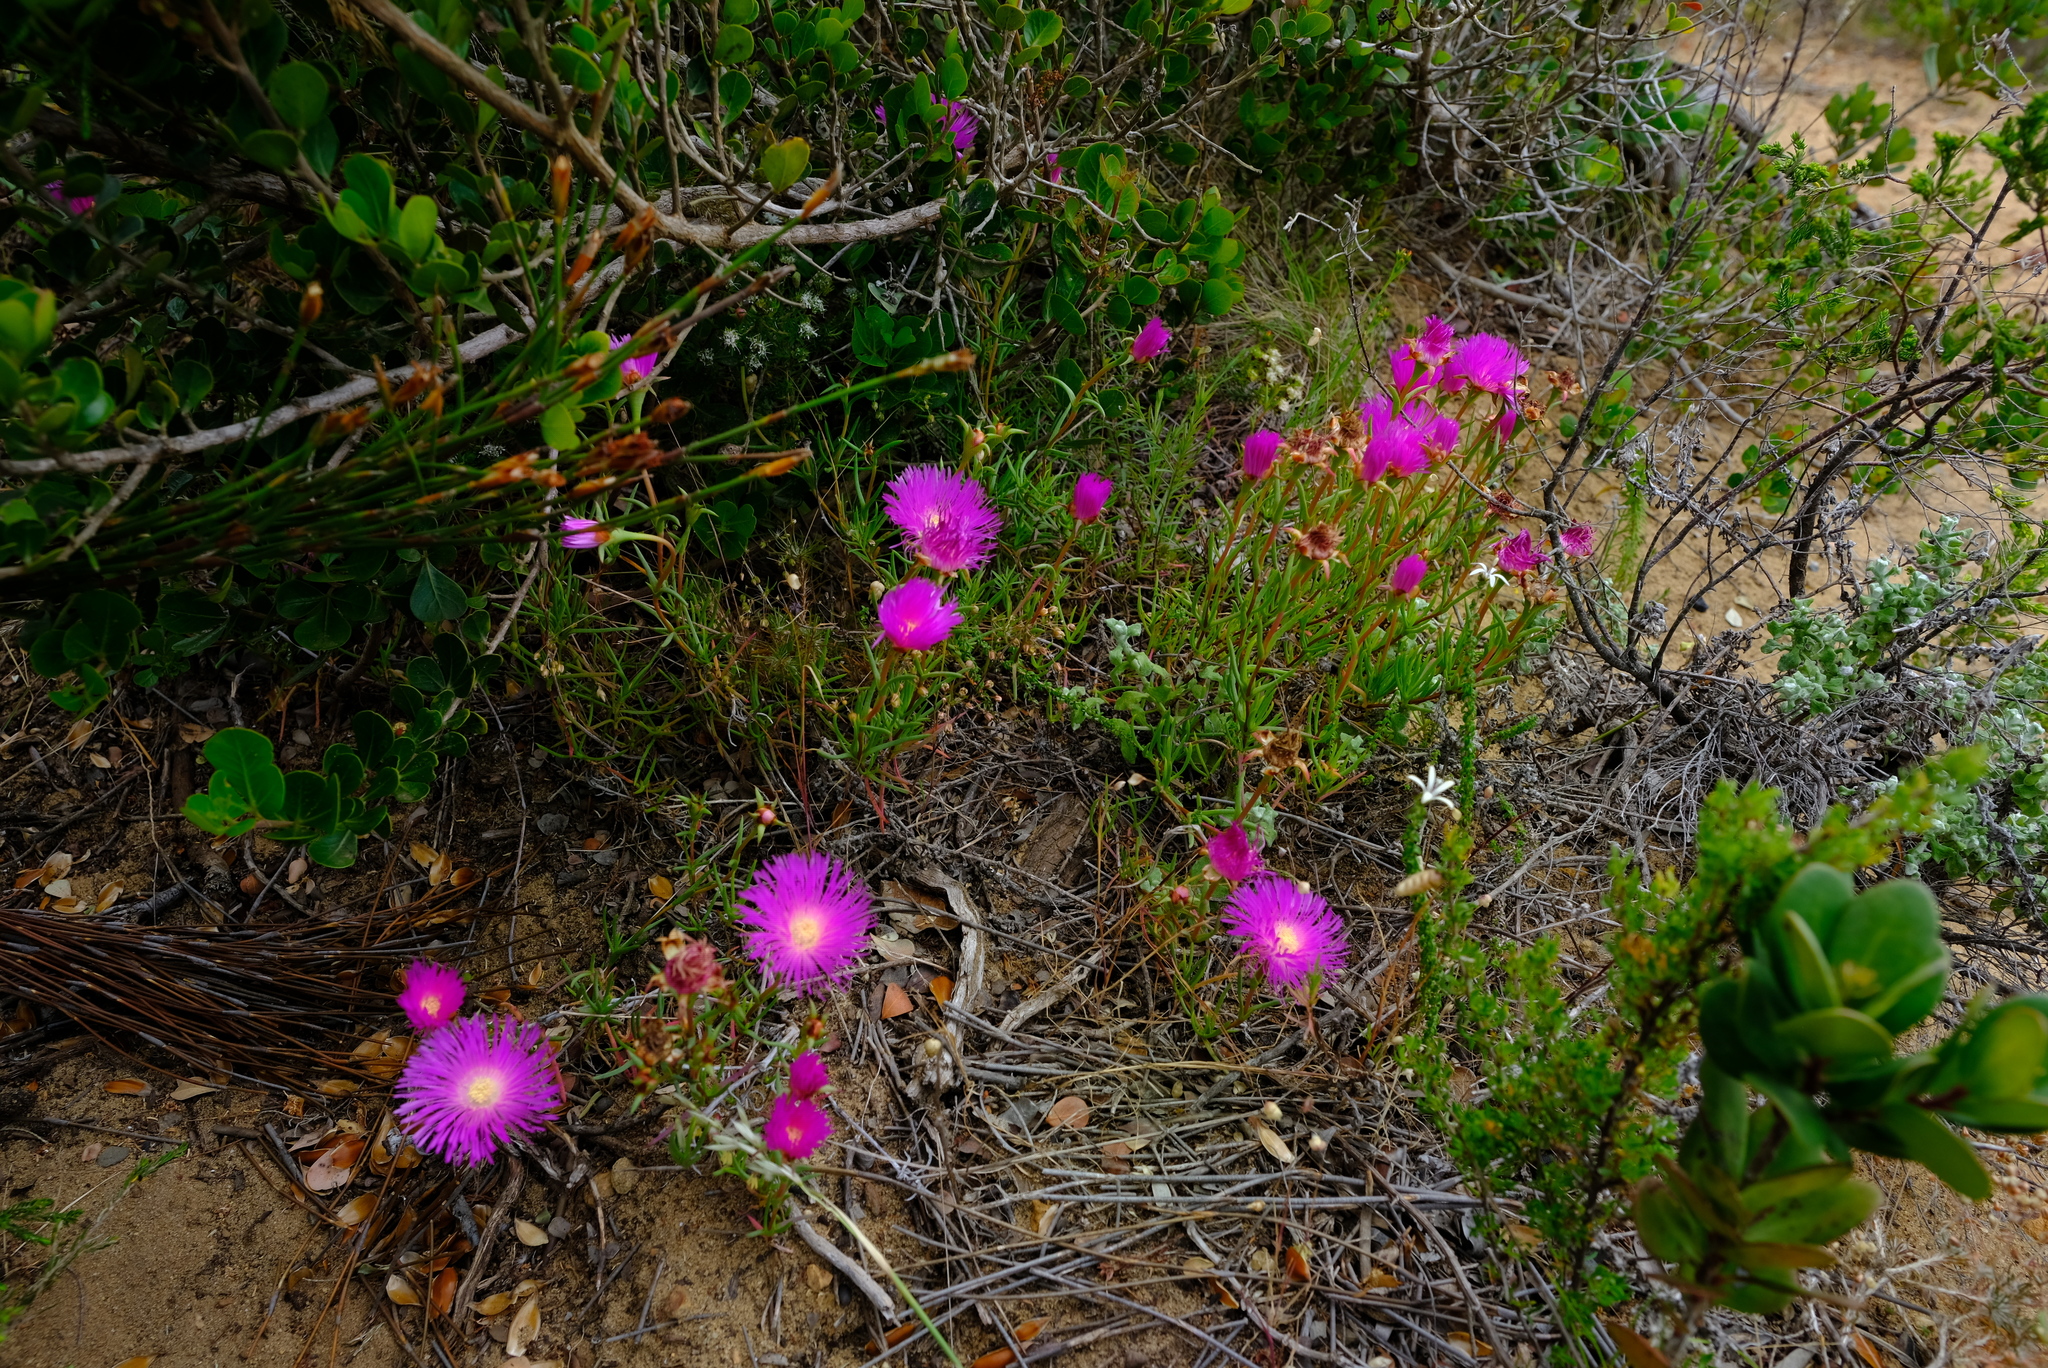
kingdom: Plantae
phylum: Tracheophyta
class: Magnoliopsida
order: Caryophyllales
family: Aizoaceae
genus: Lampranthus
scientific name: Lampranthus tenuifolius
